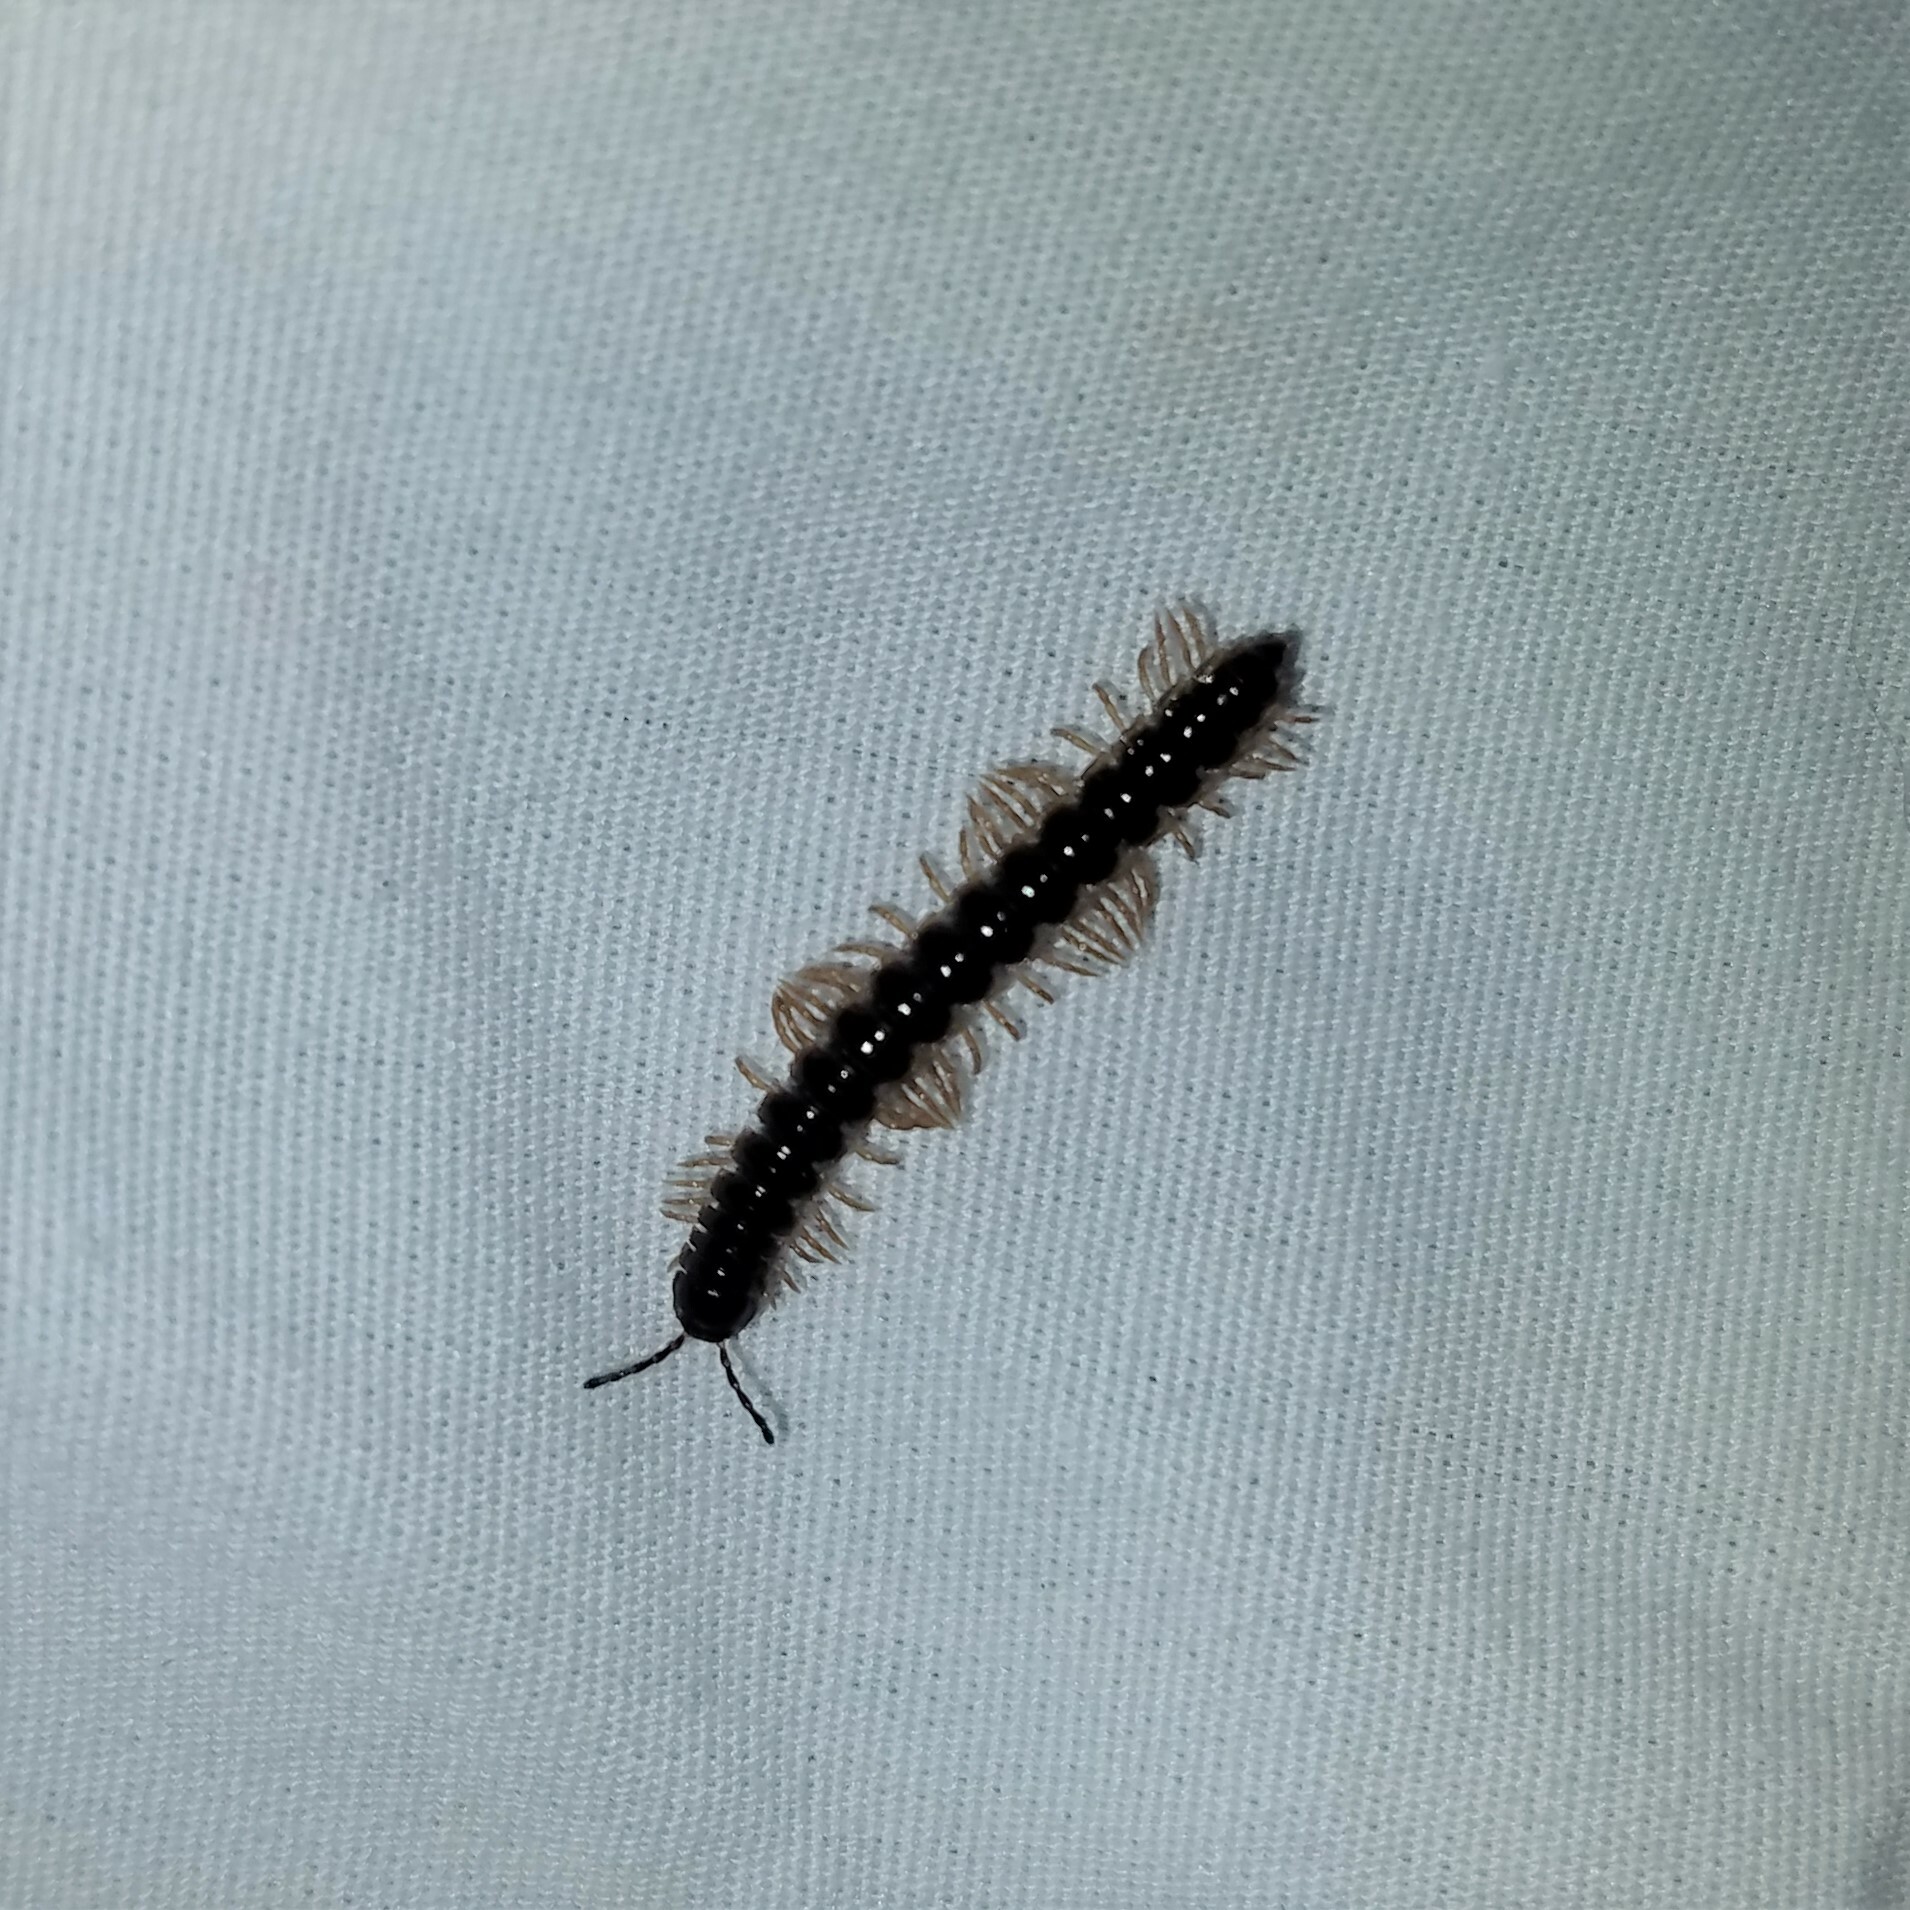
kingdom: Animalia
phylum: Arthropoda
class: Diplopoda
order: Polydesmida
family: Paradoxosomatidae
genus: Oxidus
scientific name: Oxidus gracilis
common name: Greenhouse millipede
